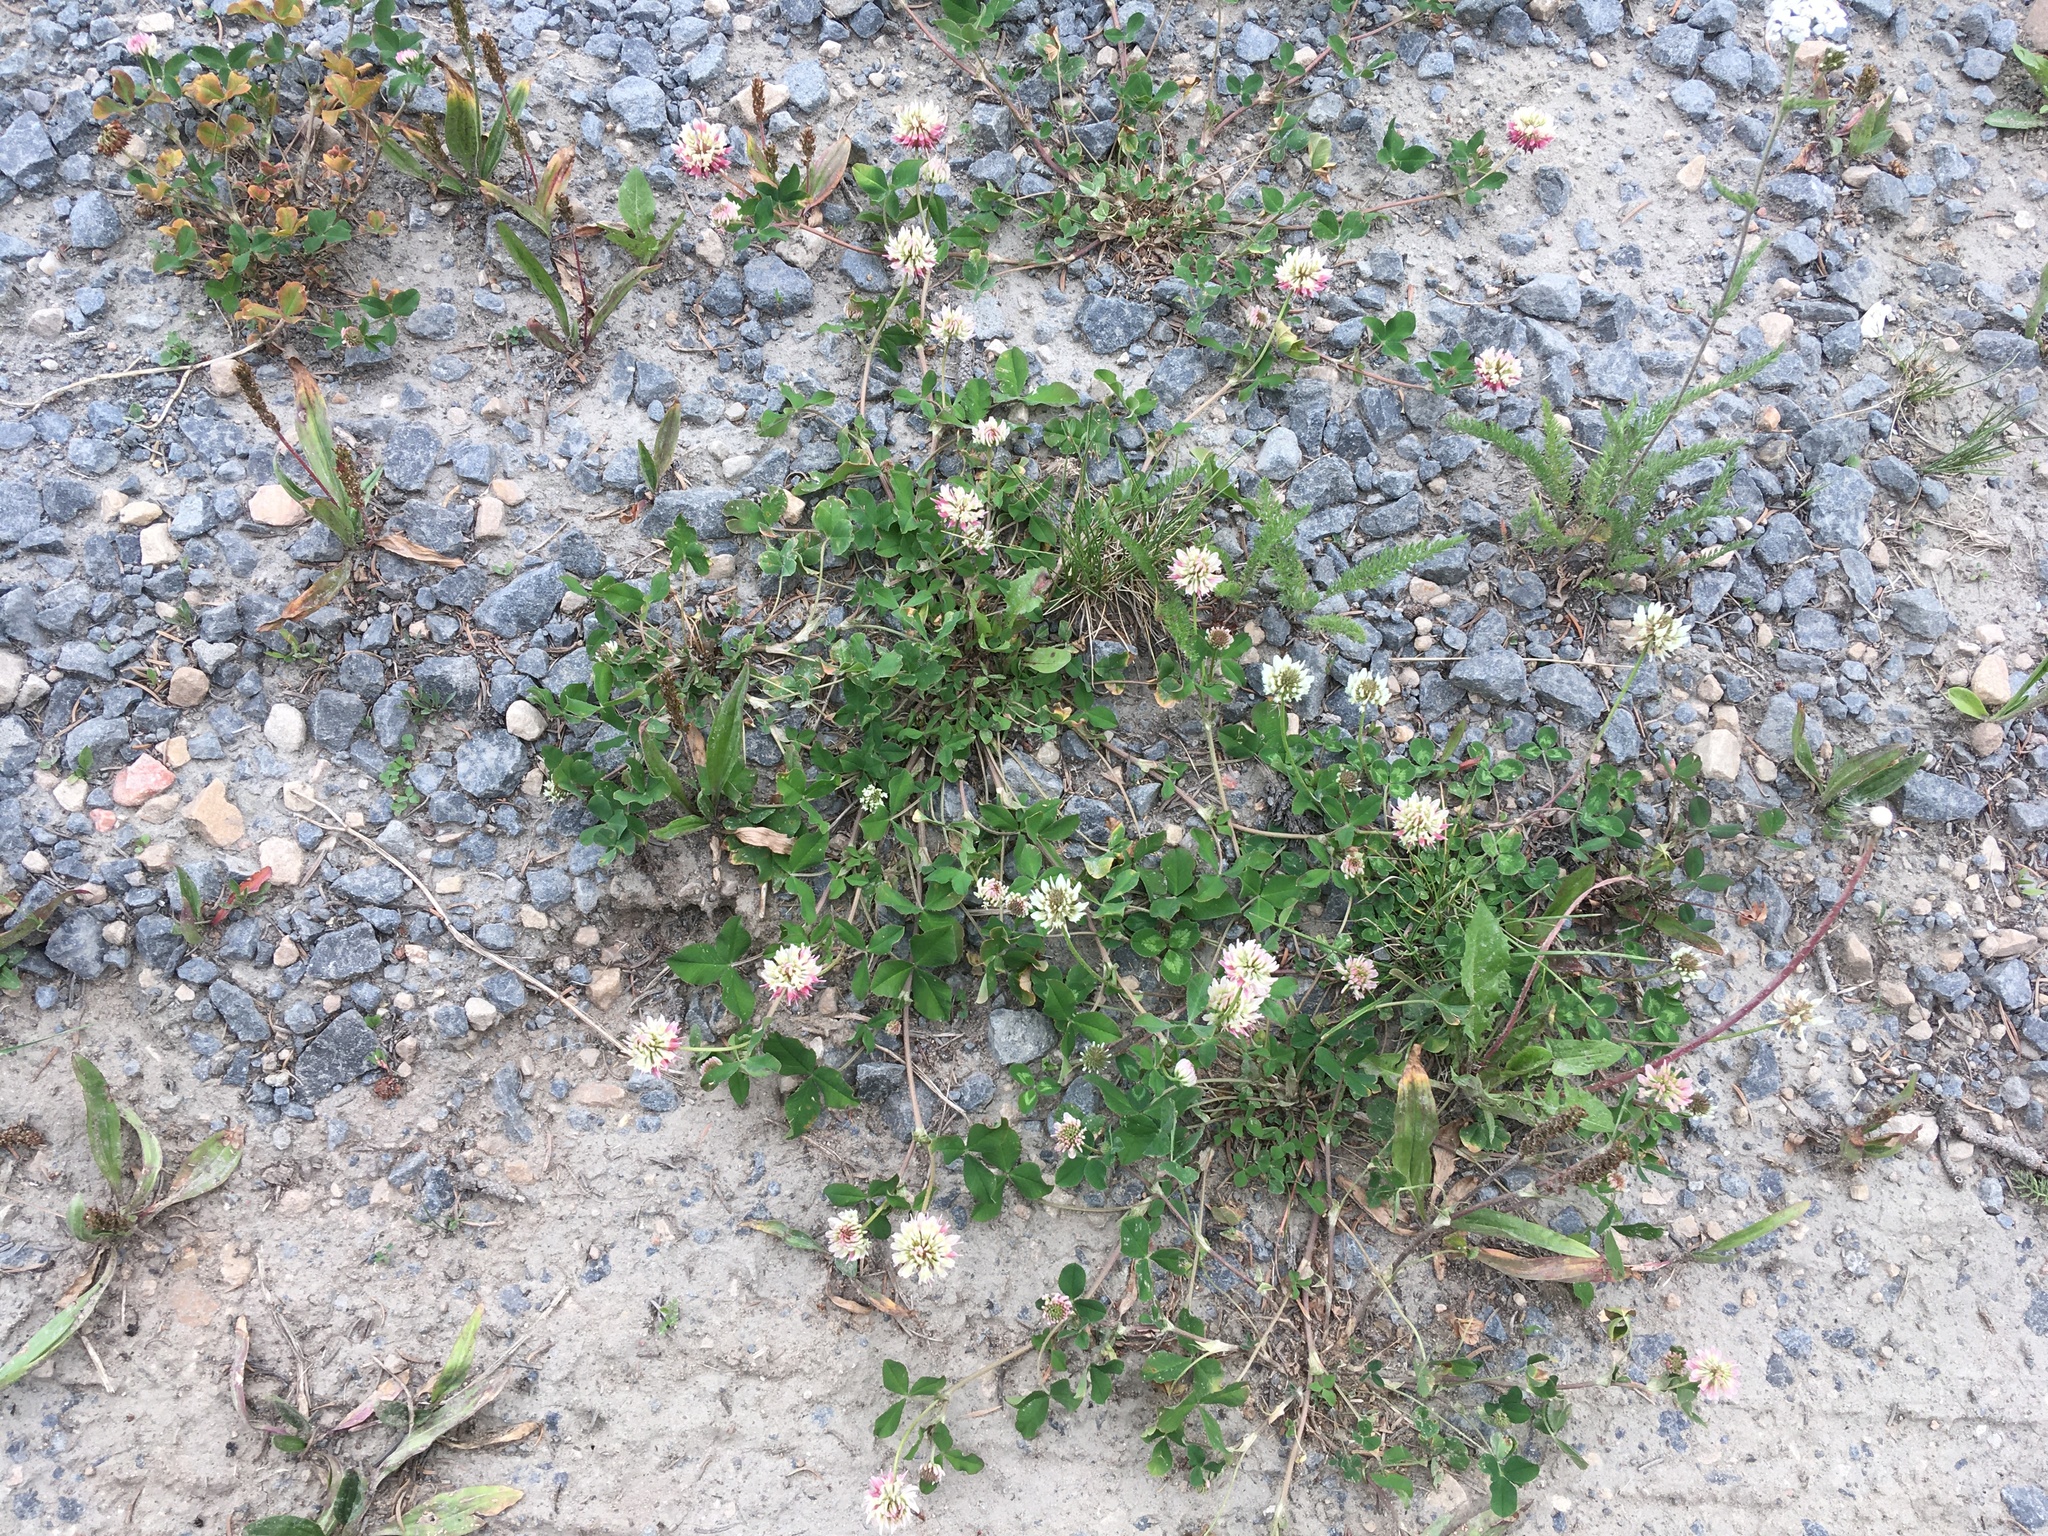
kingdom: Plantae
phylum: Tracheophyta
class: Magnoliopsida
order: Fabales
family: Fabaceae
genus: Trifolium
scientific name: Trifolium repens
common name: White clover
